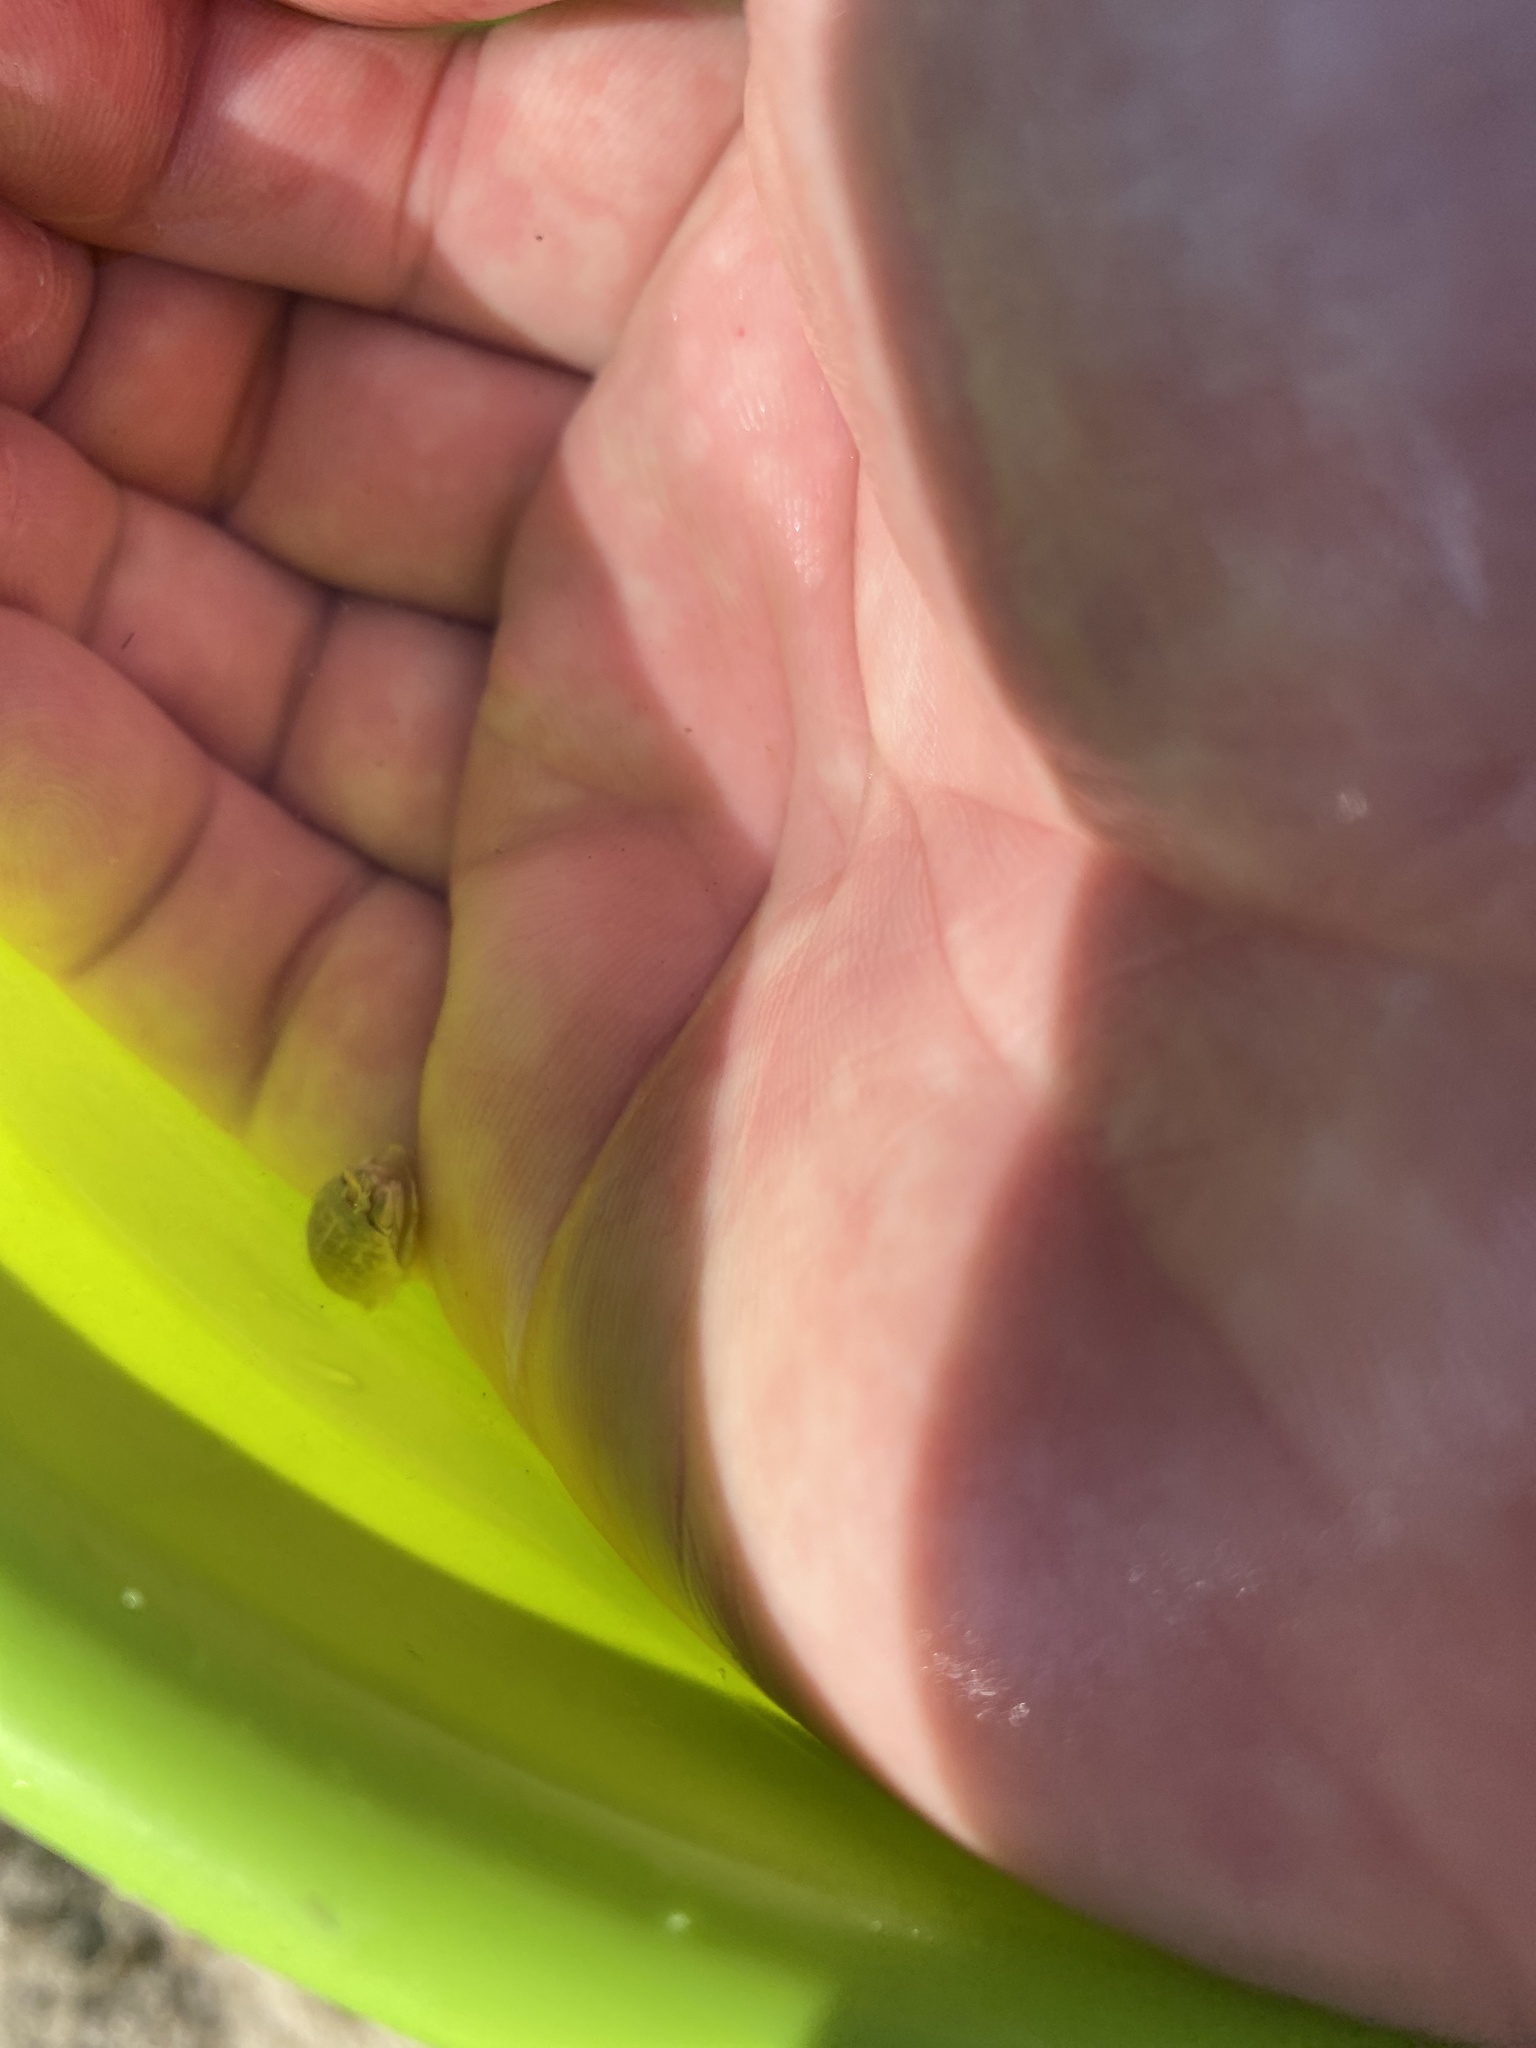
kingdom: Animalia
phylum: Arthropoda
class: Malacostraca
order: Decapoda
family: Hippidae
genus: Emerita
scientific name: Emerita talpoida
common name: Atlantic sand crab
